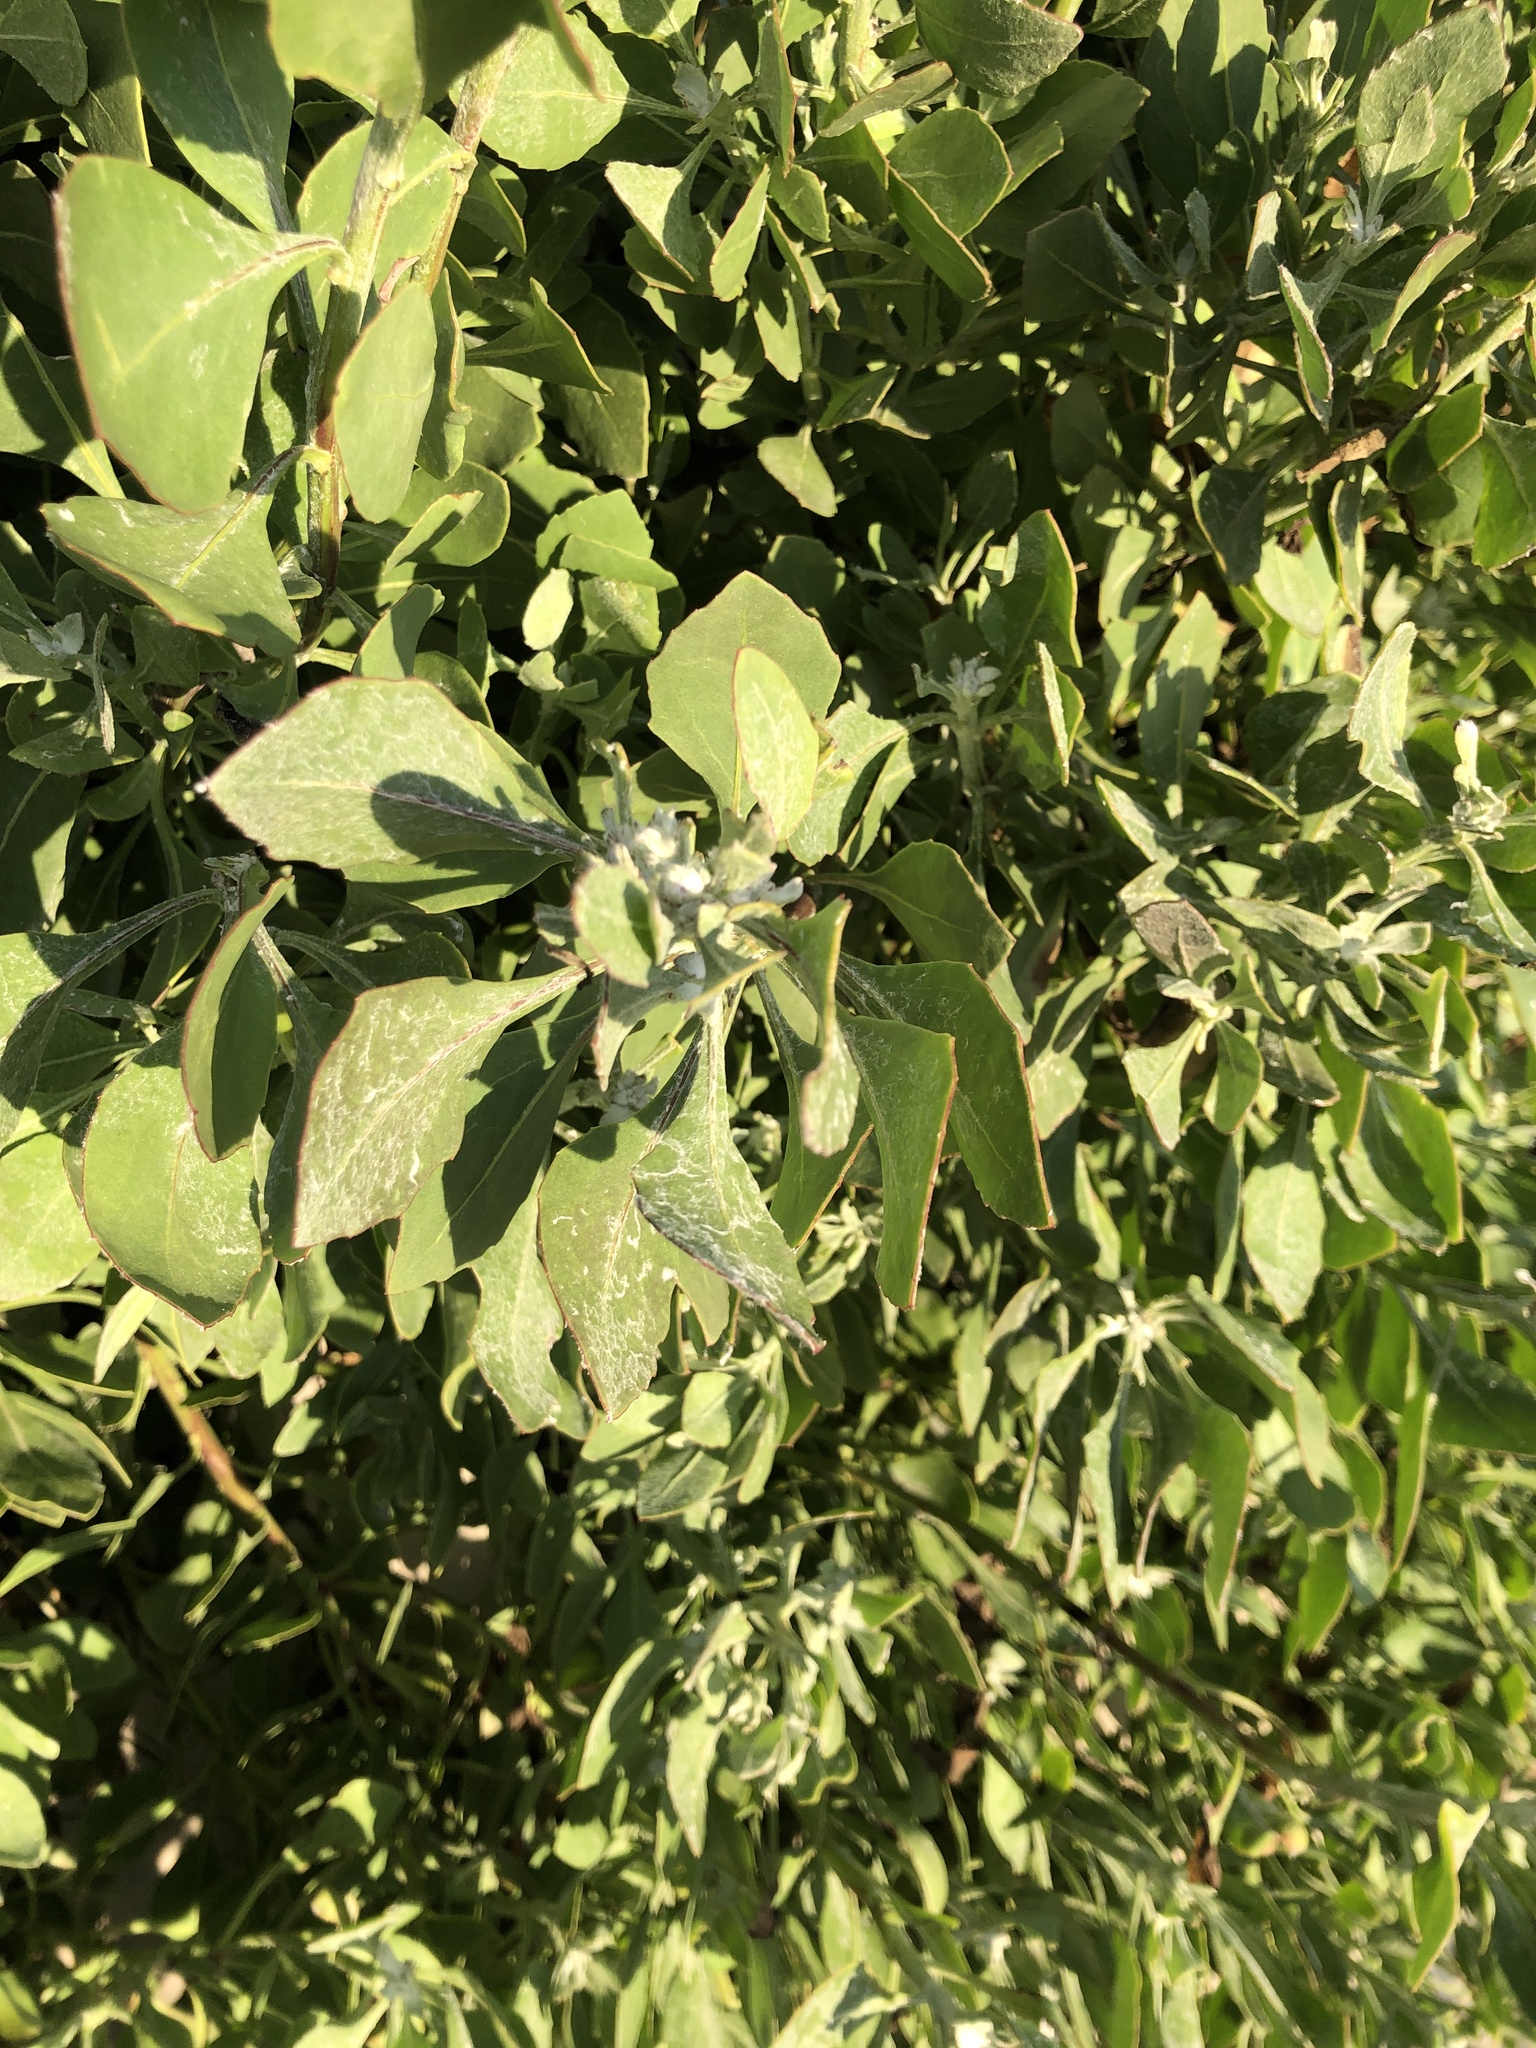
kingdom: Plantae
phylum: Tracheophyta
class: Magnoliopsida
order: Asterales
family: Asteraceae
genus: Osteospermum
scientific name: Osteospermum moniliferum
